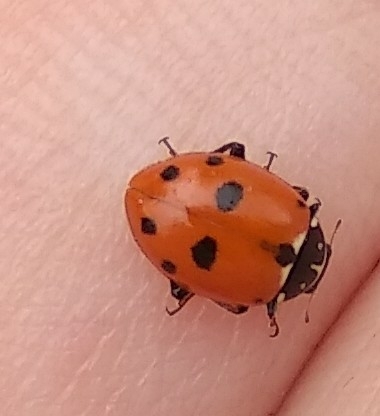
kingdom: Animalia
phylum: Arthropoda
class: Insecta
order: Coleoptera
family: Coccinellidae
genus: Hippodamia
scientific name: Hippodamia variegata
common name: Ladybird beetle
